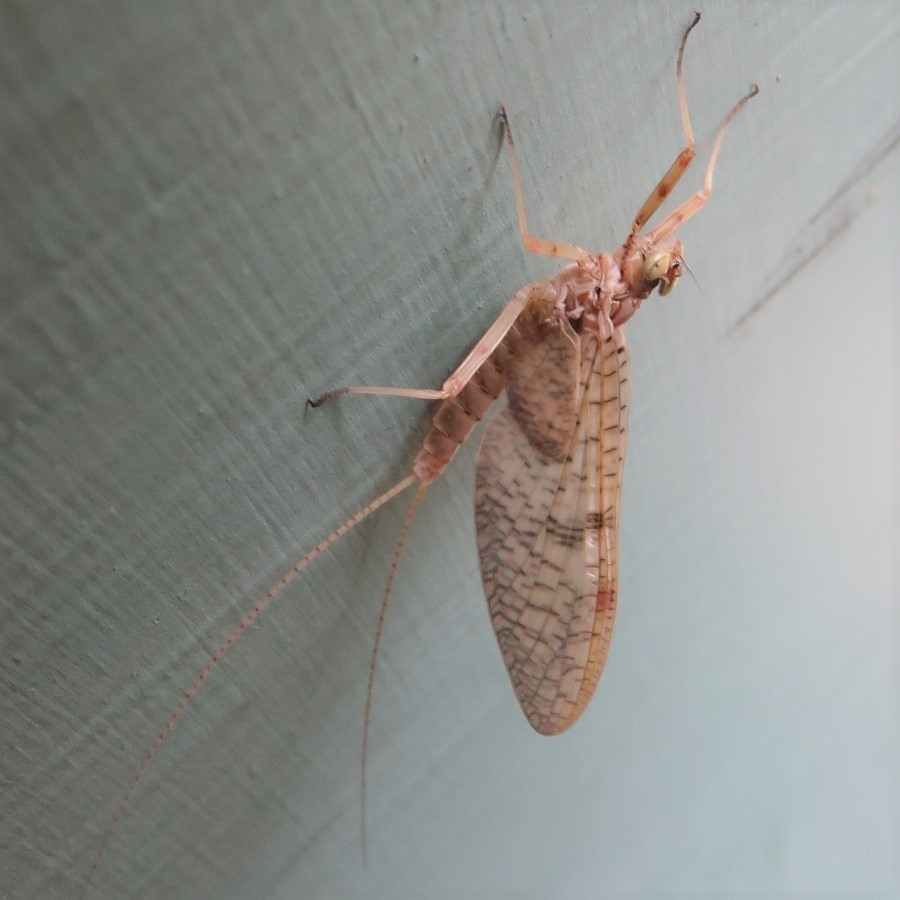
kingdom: Animalia
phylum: Arthropoda
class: Insecta
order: Ephemeroptera
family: Heptageniidae
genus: Stenonema
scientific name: Stenonema femoratum
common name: Dark cahill
